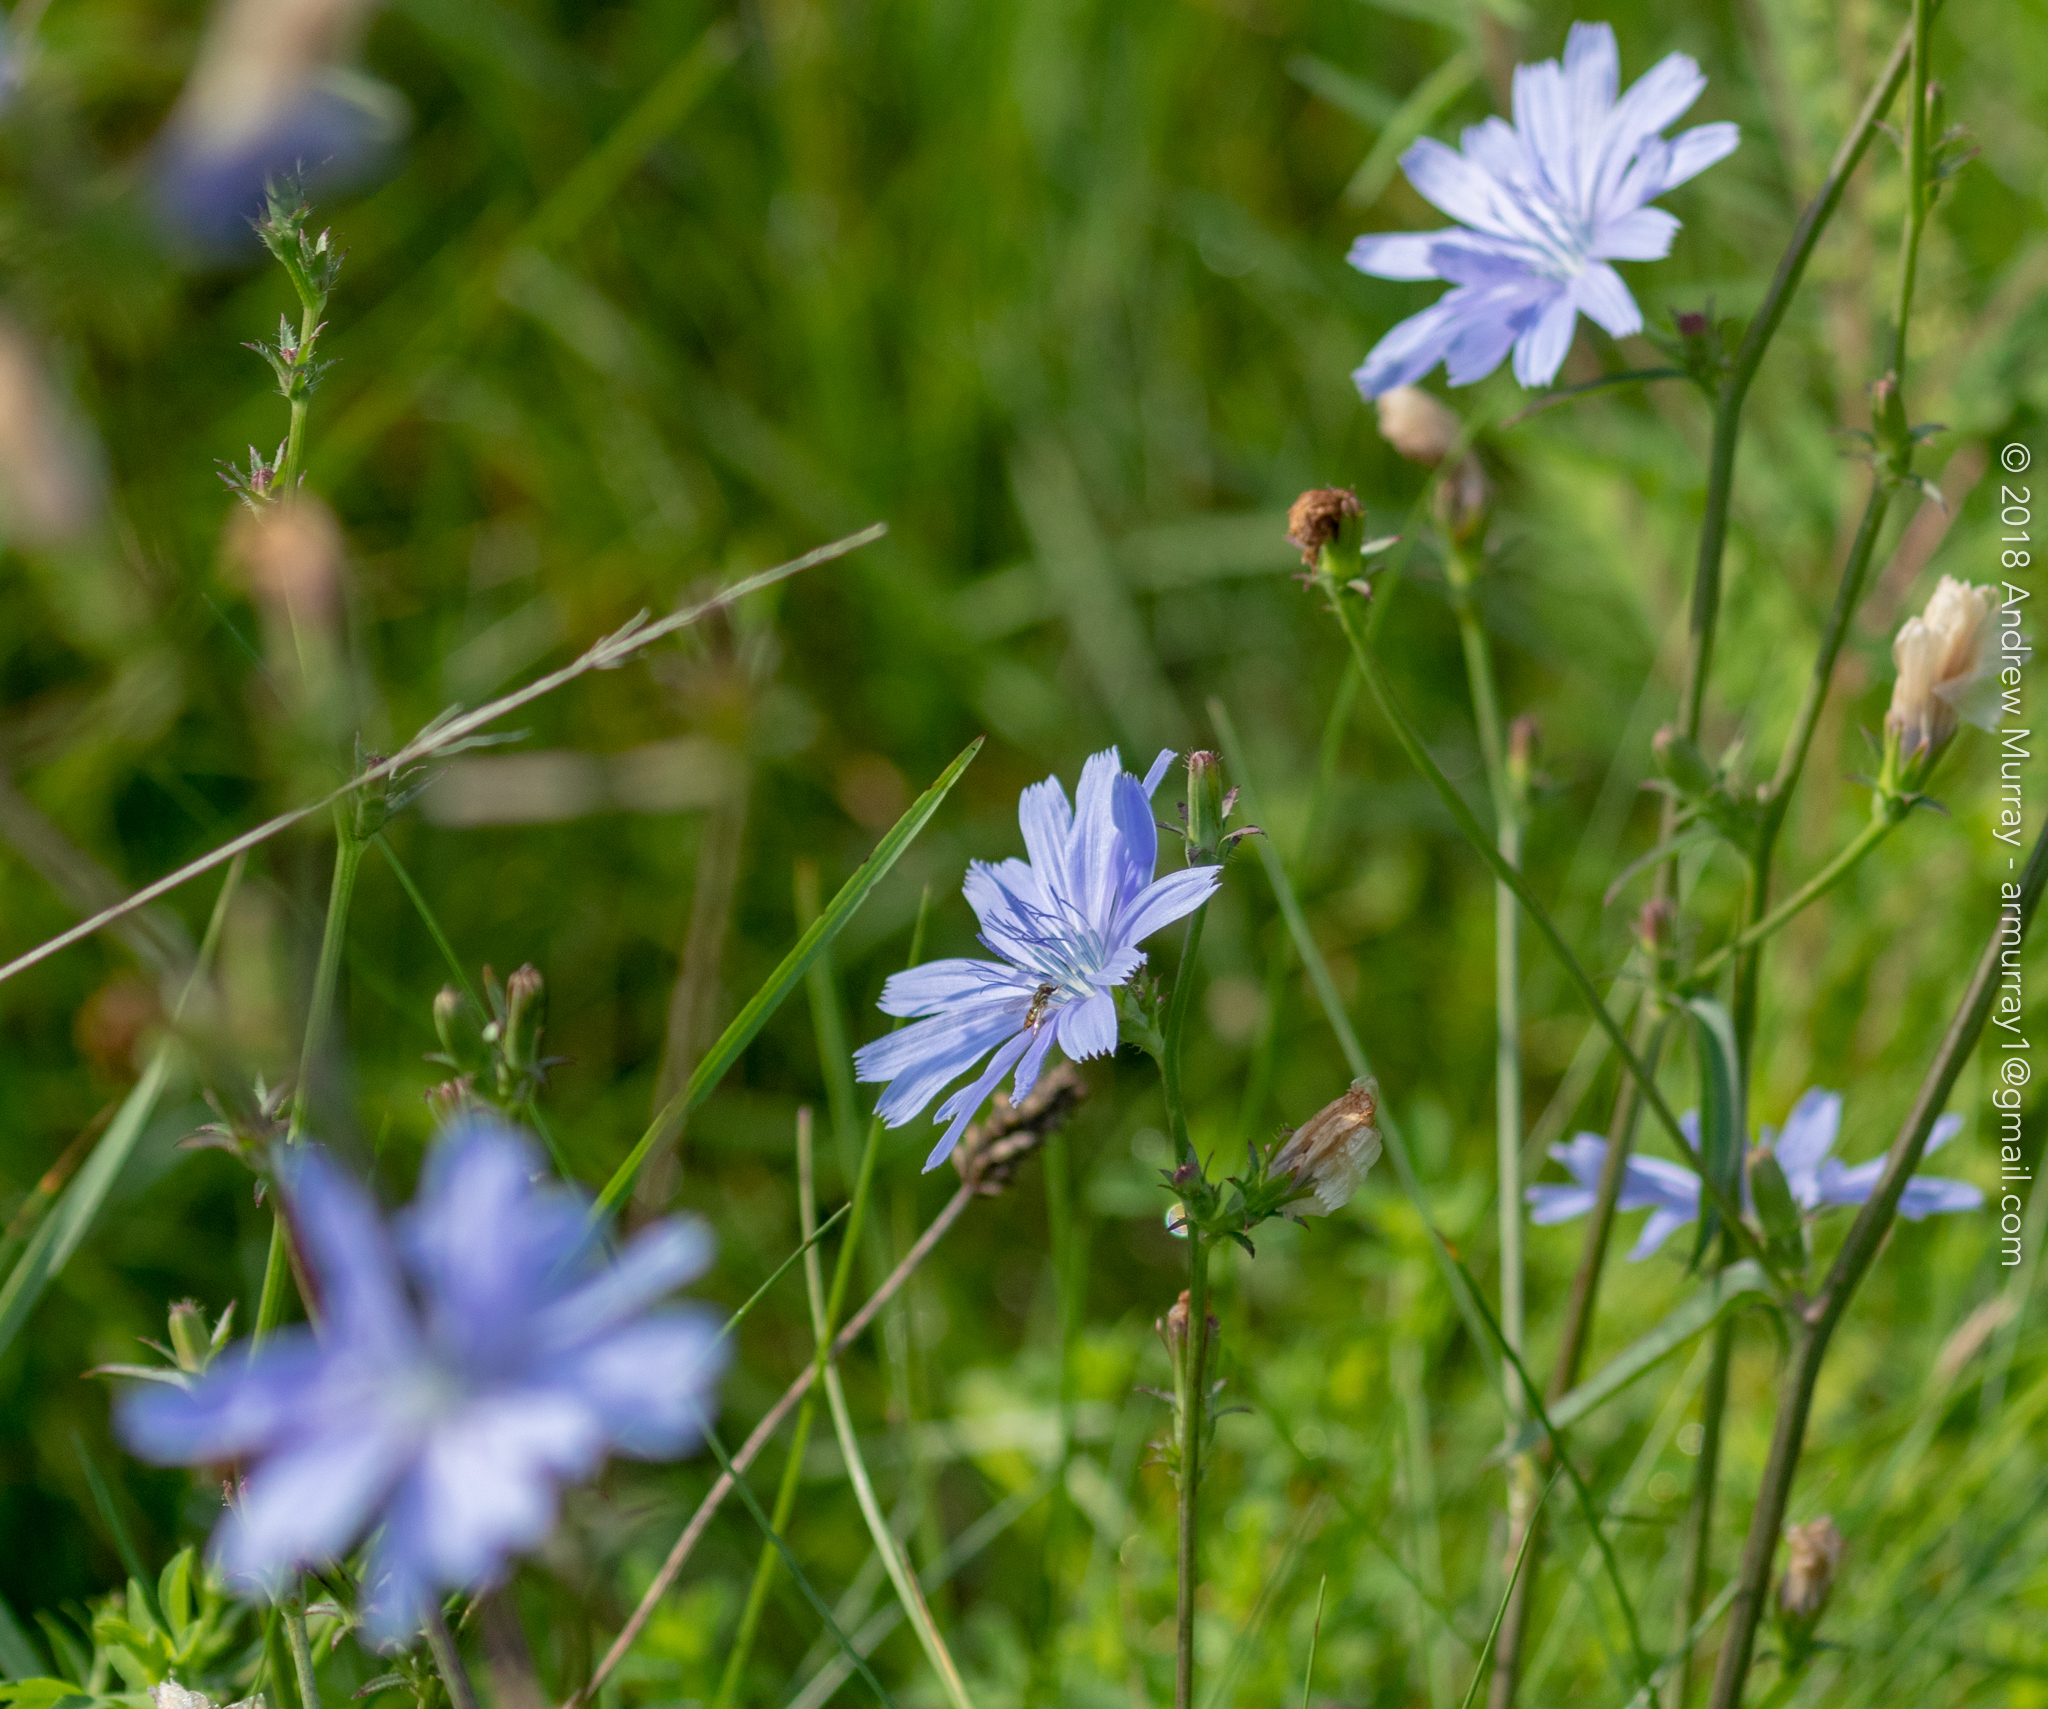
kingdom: Plantae
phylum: Tracheophyta
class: Magnoliopsida
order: Asterales
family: Asteraceae
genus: Cichorium
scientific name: Cichorium intybus
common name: Chicory
